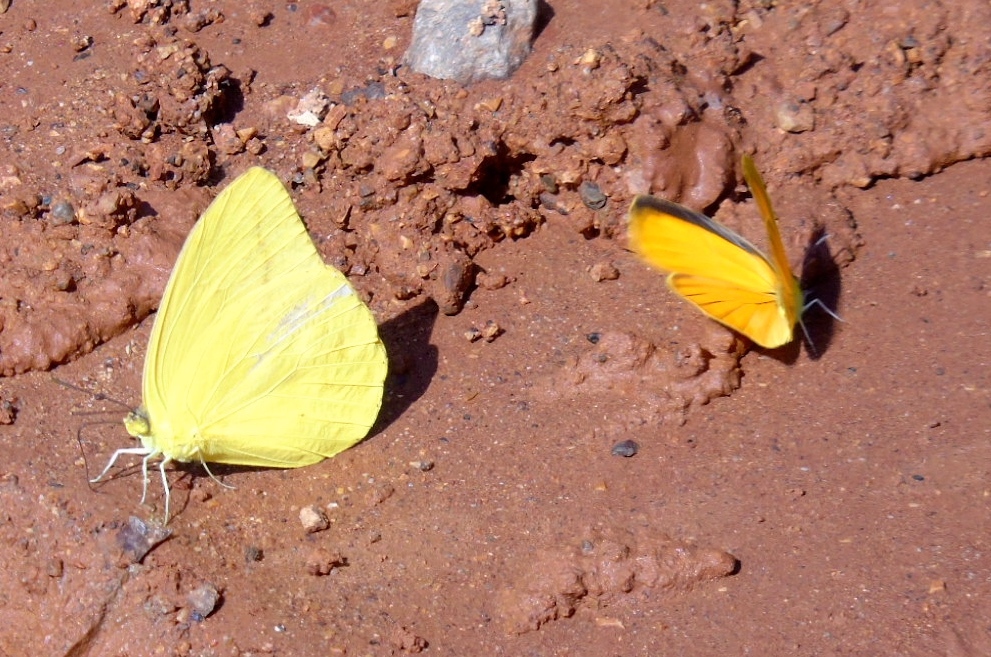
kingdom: Animalia
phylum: Arthropoda
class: Insecta
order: Lepidoptera
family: Pieridae
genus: Pyrisitia
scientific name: Pyrisitia proterpia
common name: Tailed orange
